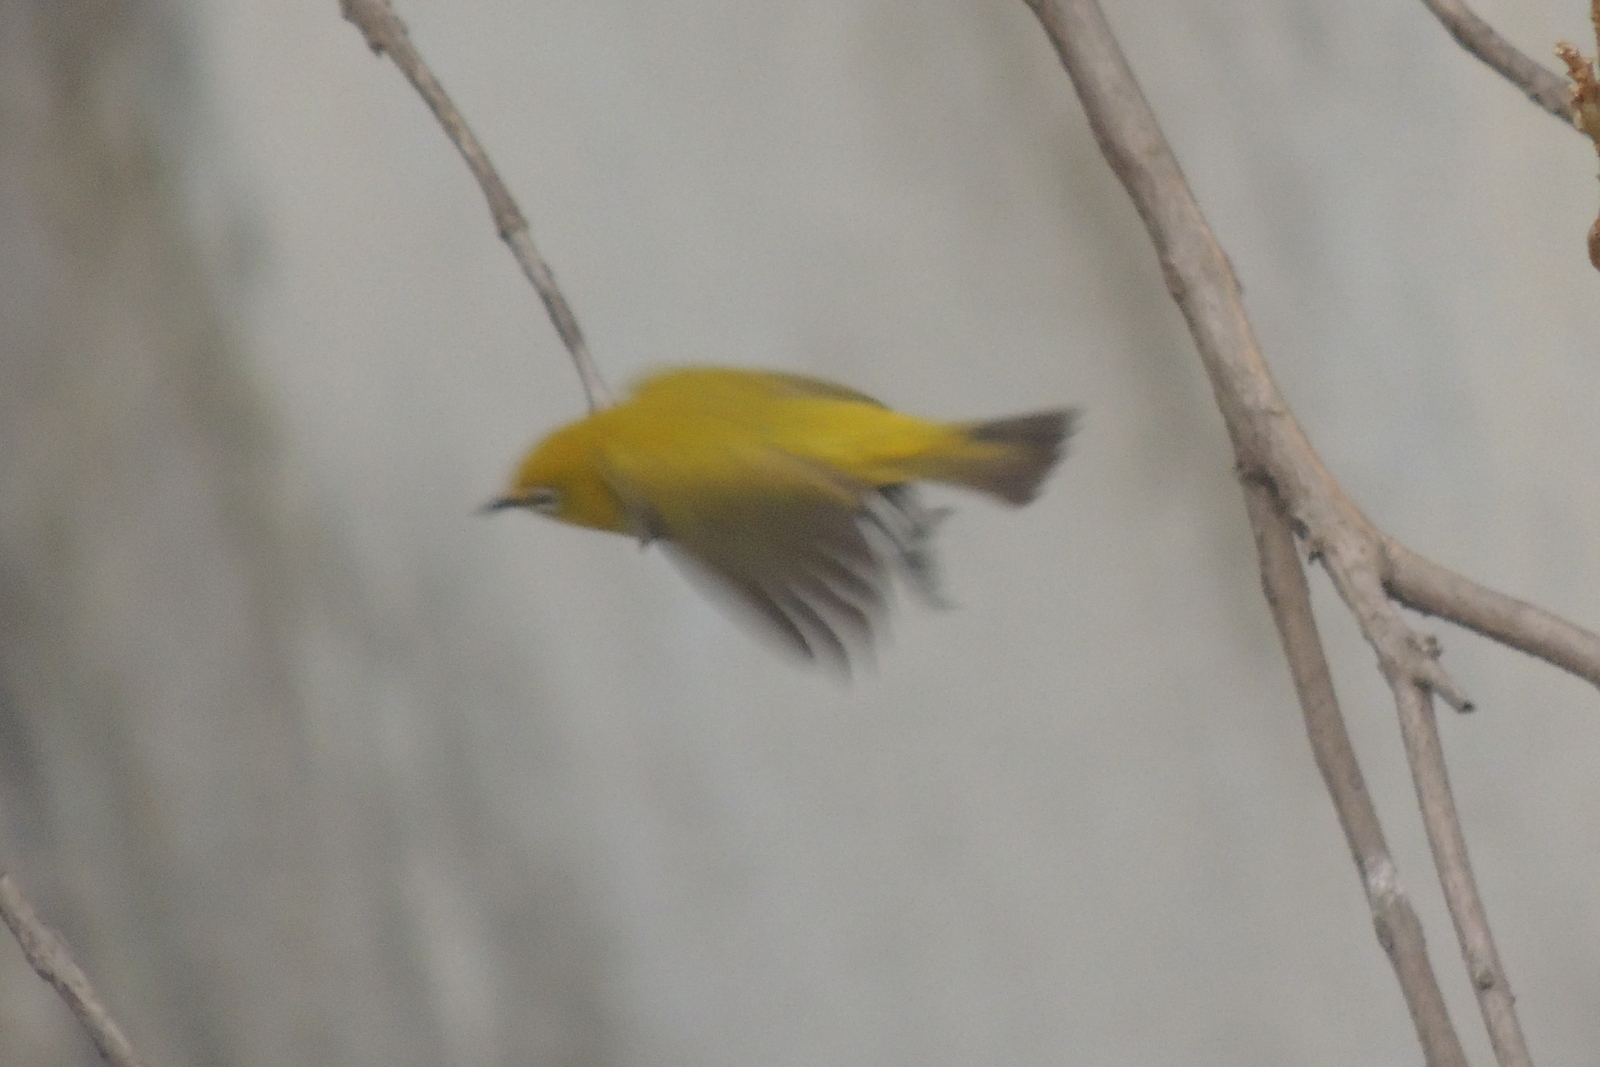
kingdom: Animalia
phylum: Chordata
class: Aves
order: Passeriformes
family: Zosteropidae
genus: Zosterops
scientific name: Zosterops palpebrosus
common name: Oriental white-eye
